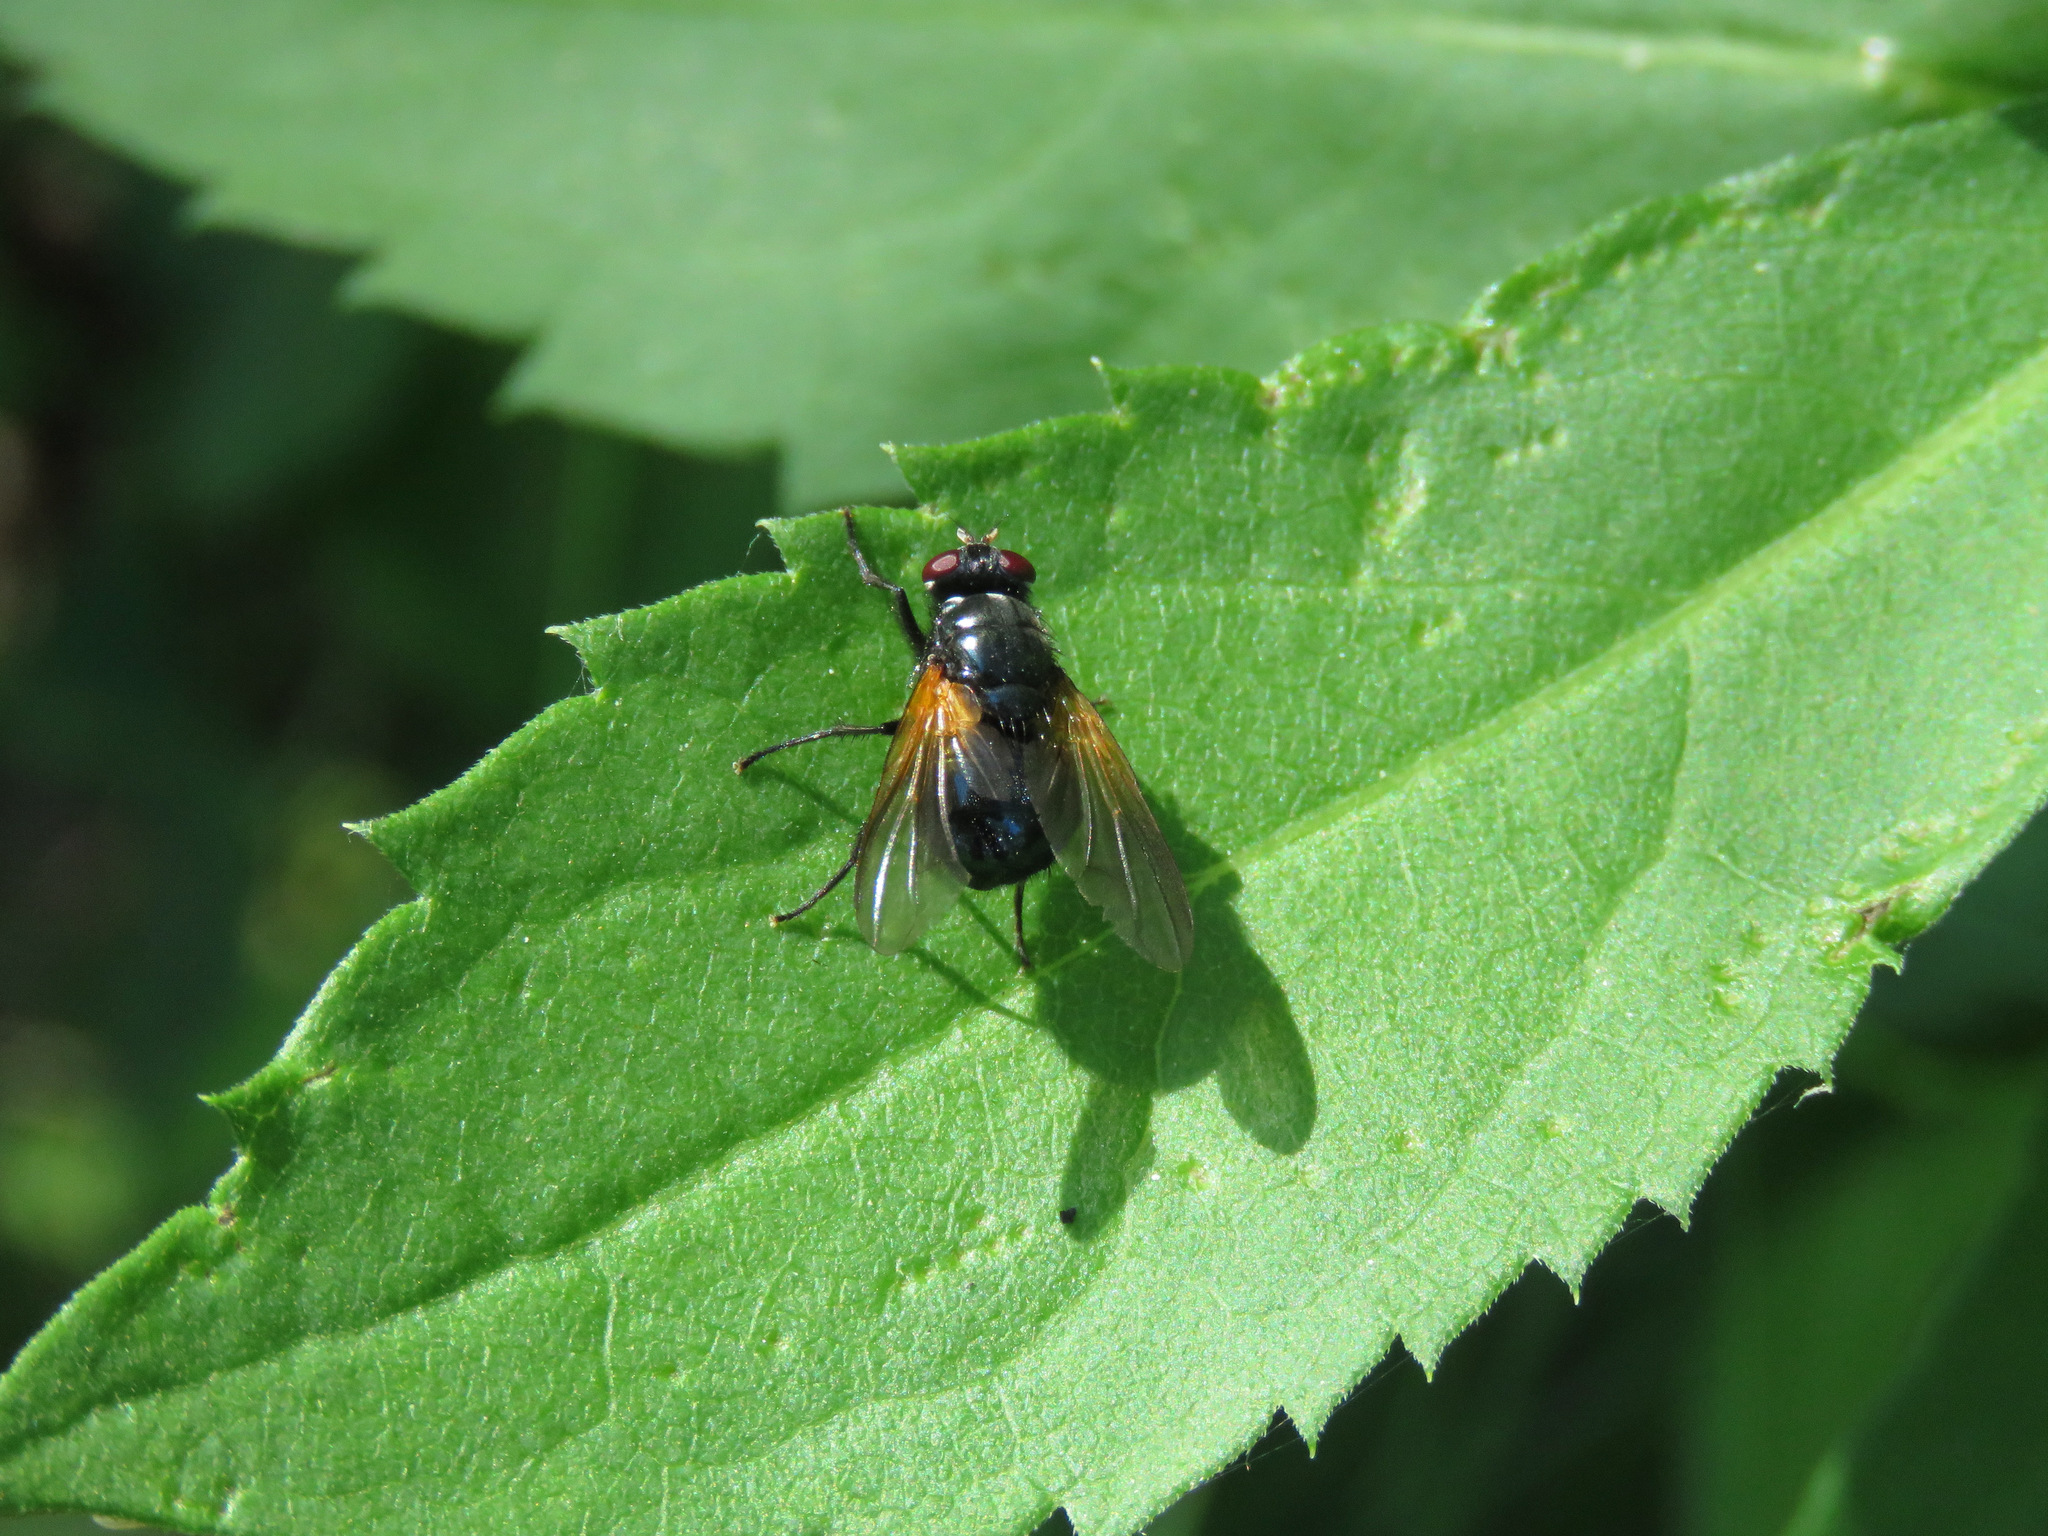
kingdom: Animalia
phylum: Arthropoda
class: Insecta
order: Diptera
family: Muscidae
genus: Mesembrina
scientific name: Mesembrina latreillii
